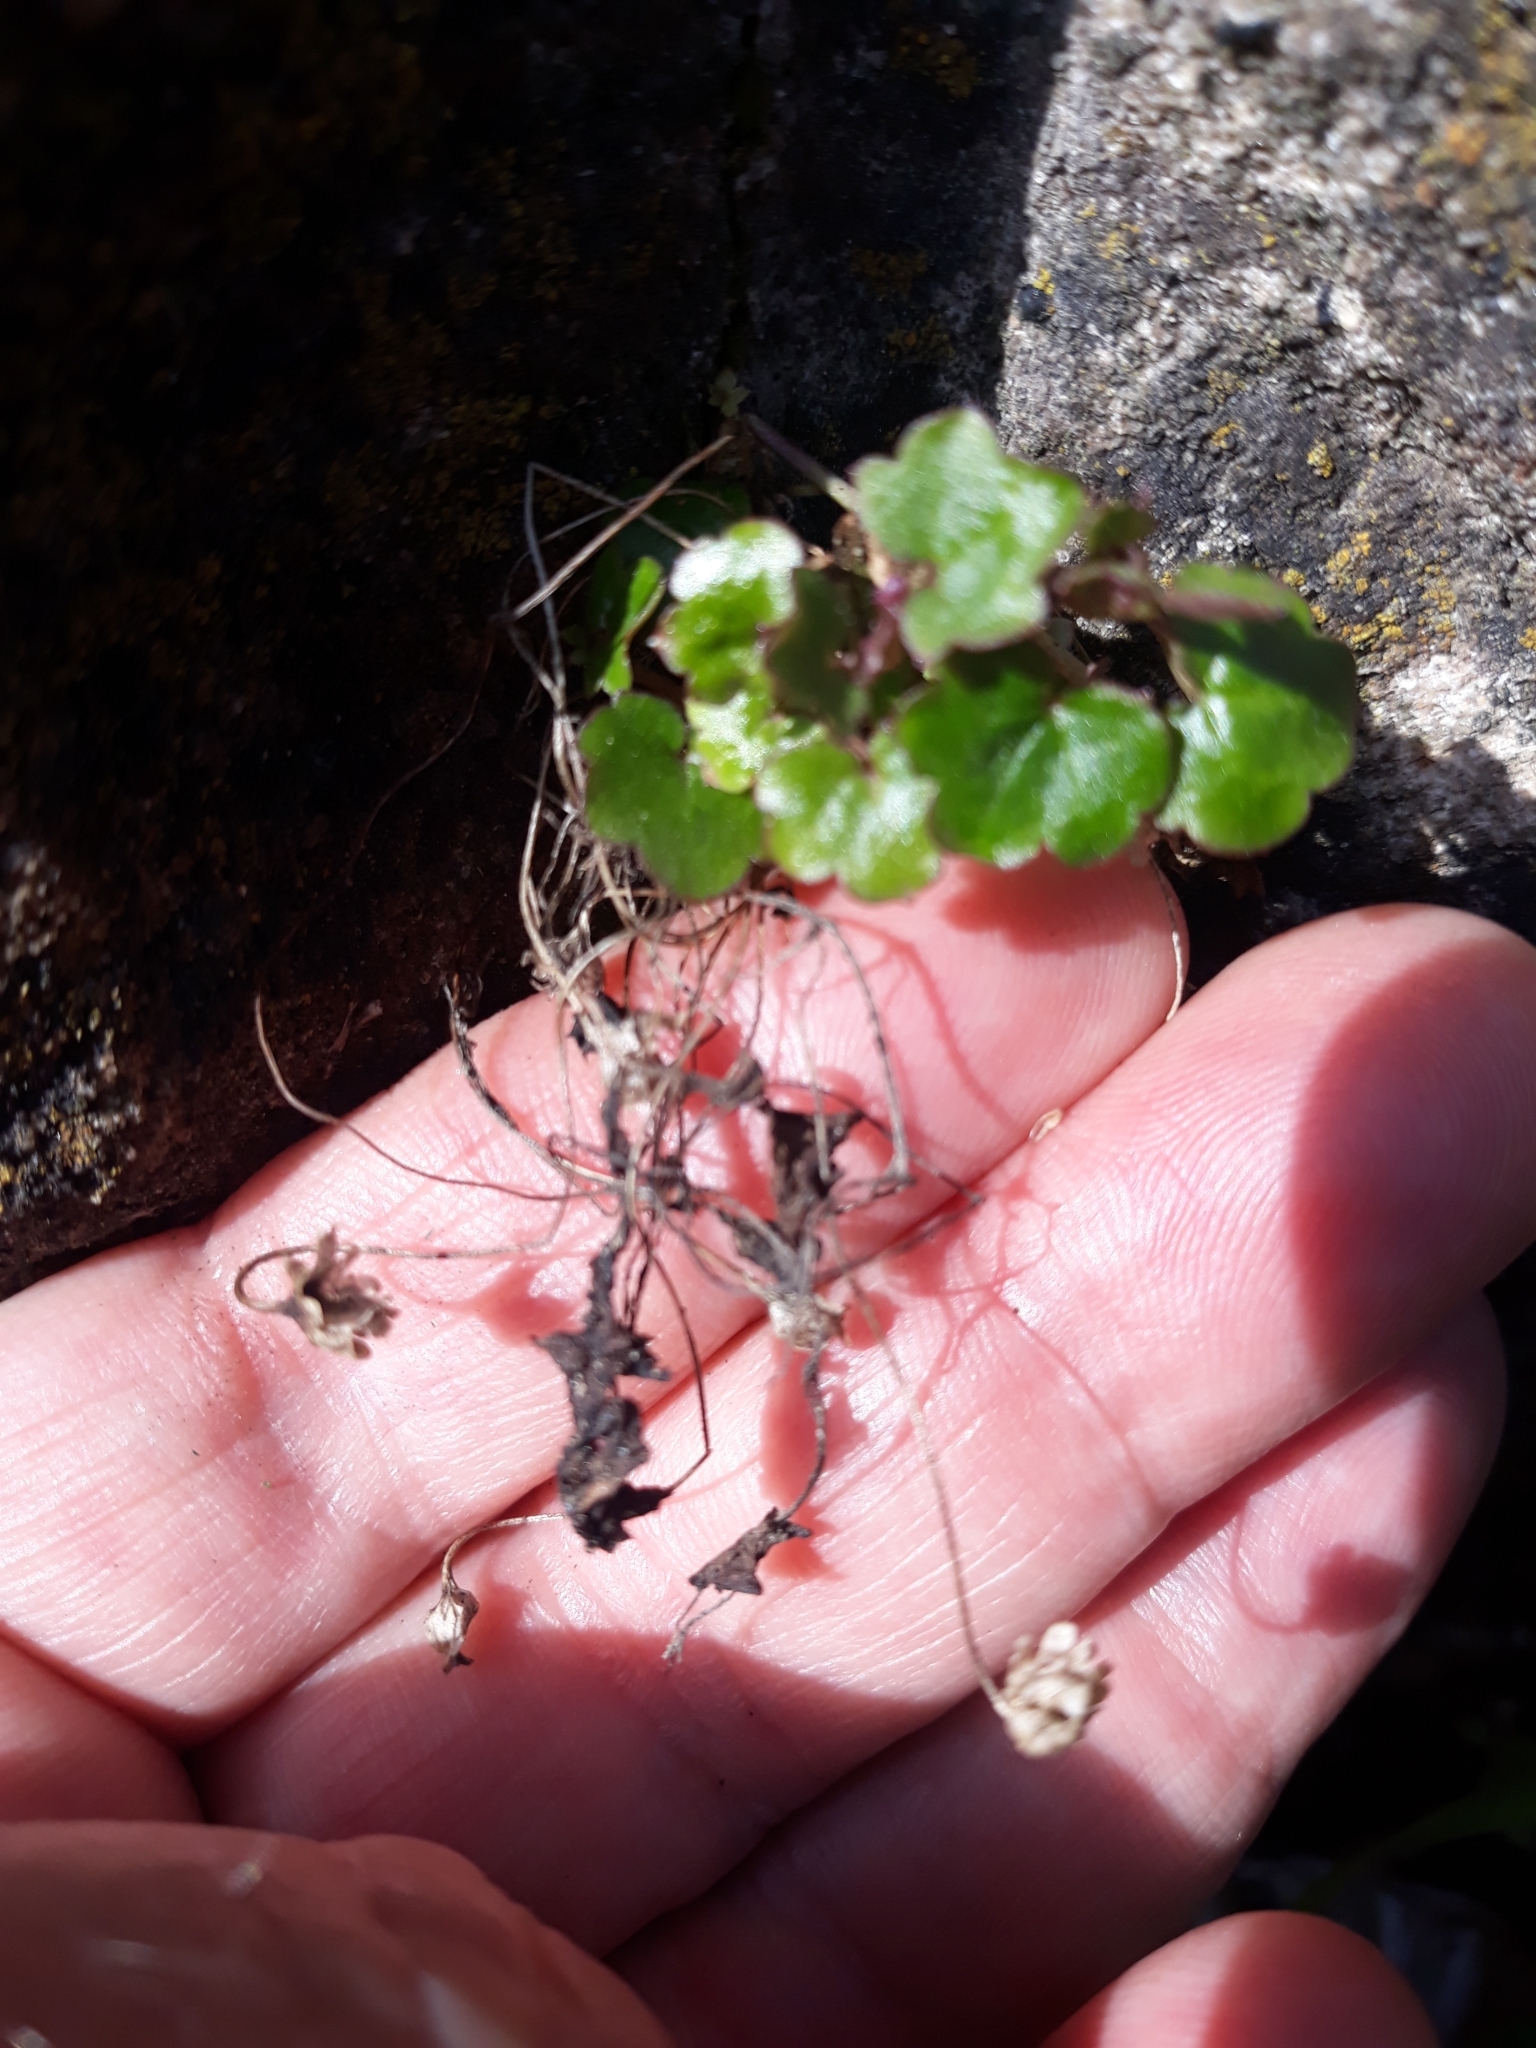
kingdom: Plantae
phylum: Tracheophyta
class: Magnoliopsida
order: Lamiales
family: Plantaginaceae
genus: Cymbalaria
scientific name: Cymbalaria muralis
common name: Ivy-leaved toadflax
